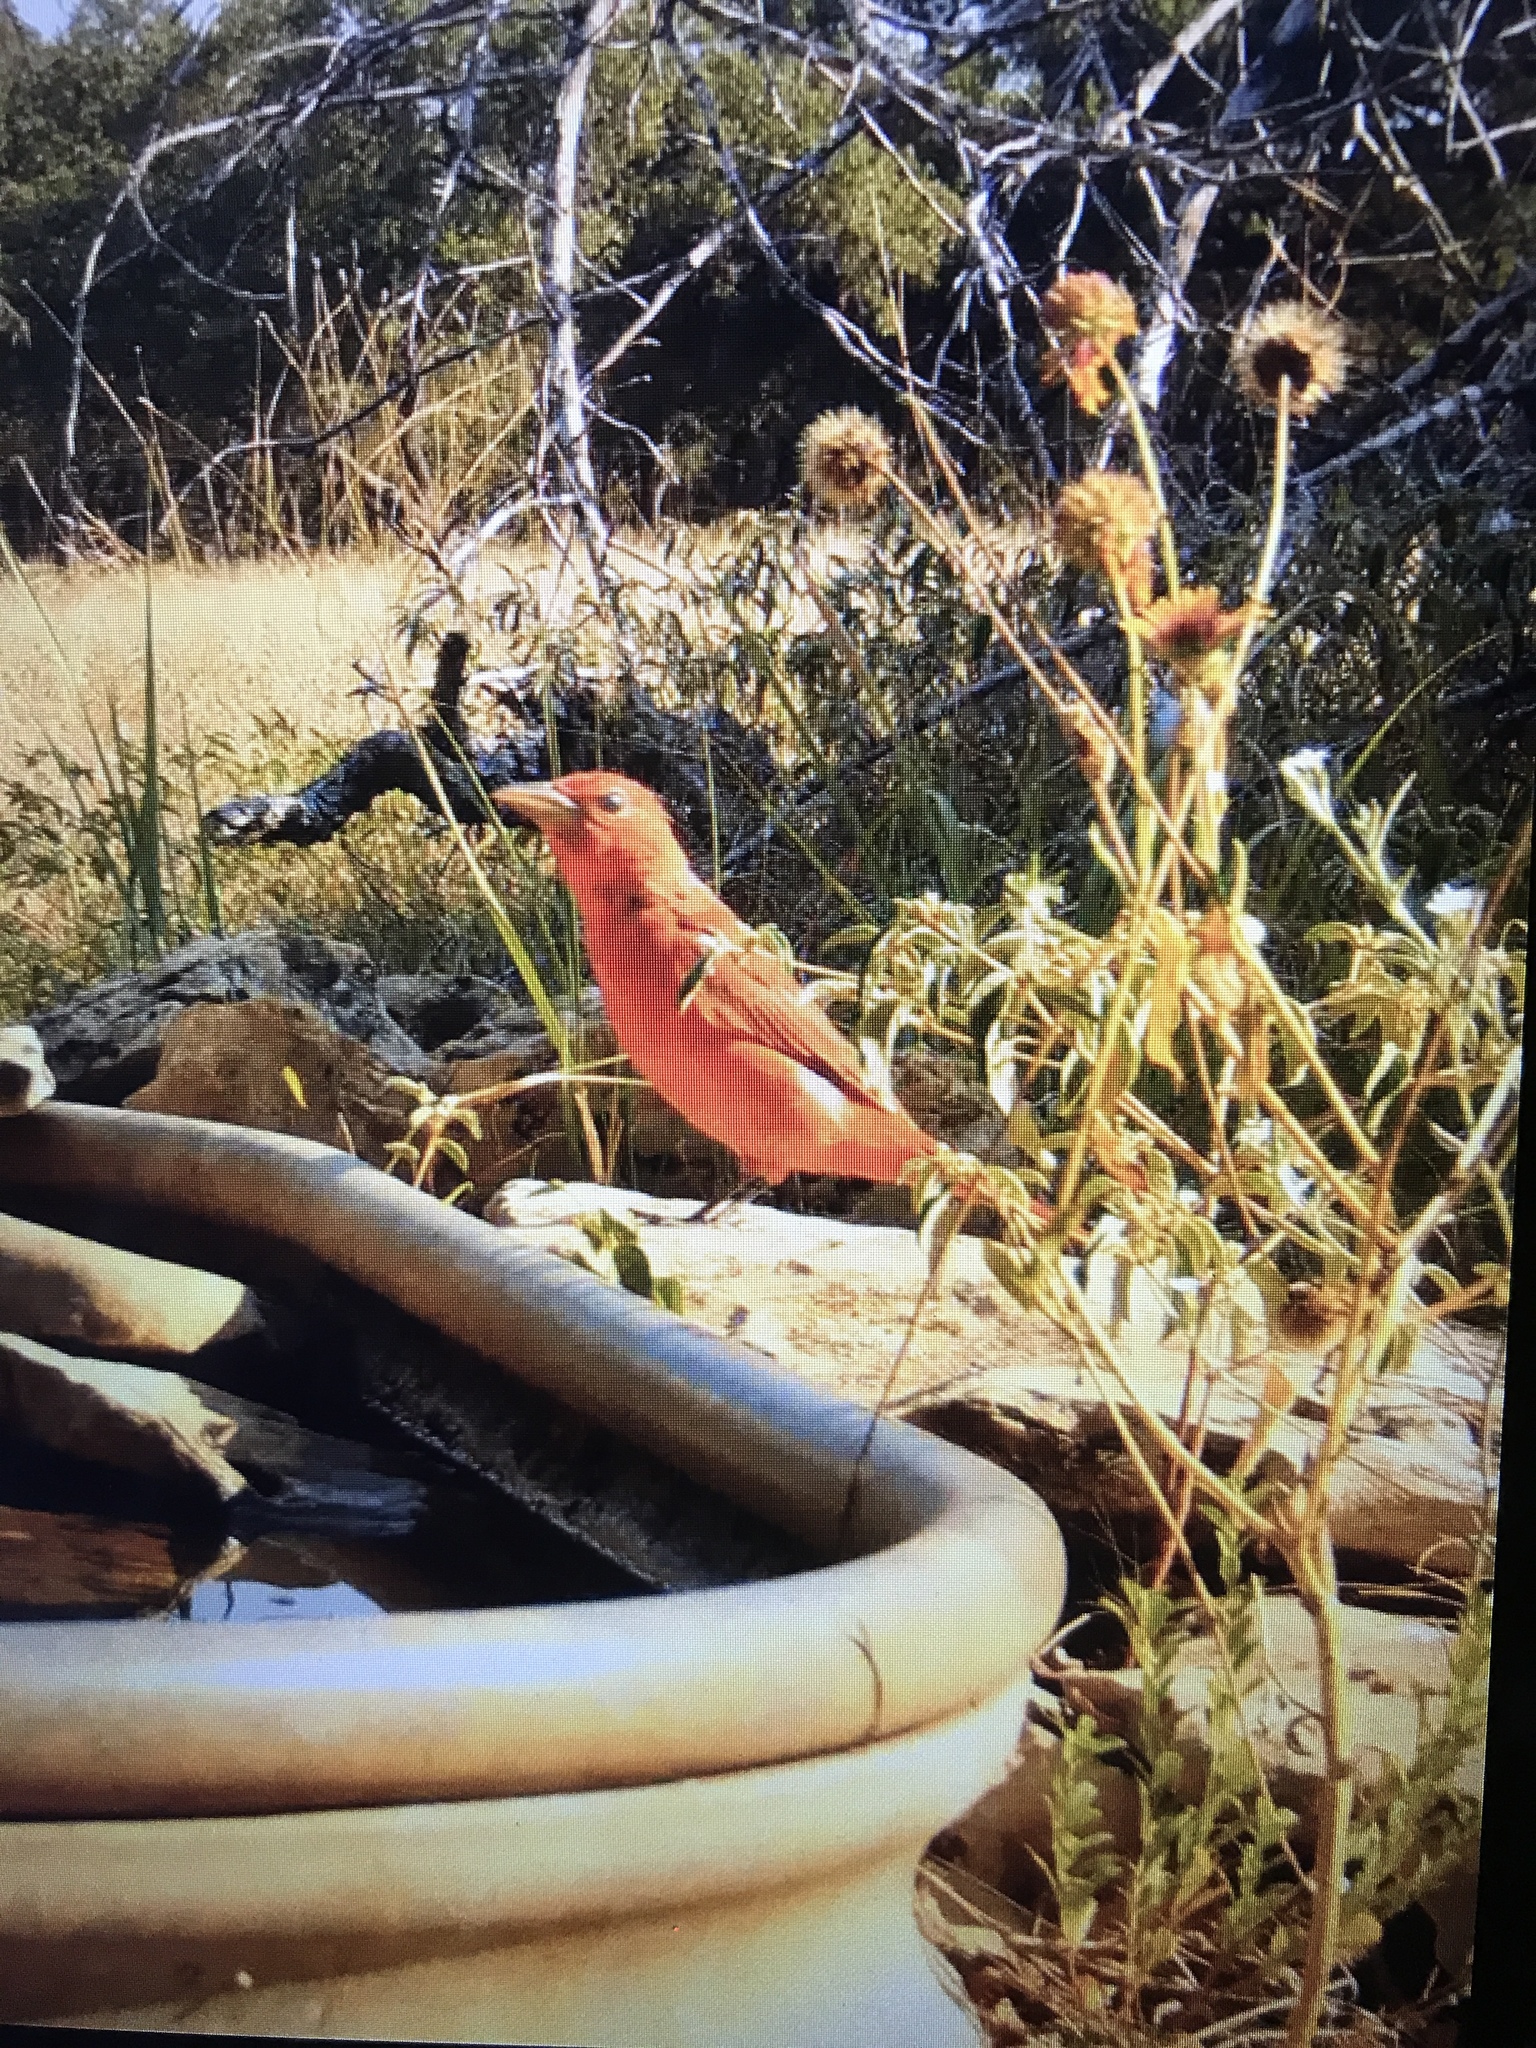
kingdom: Animalia
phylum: Chordata
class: Aves
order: Passeriformes
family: Cardinalidae
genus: Piranga
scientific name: Piranga rubra
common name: Summer tanager
